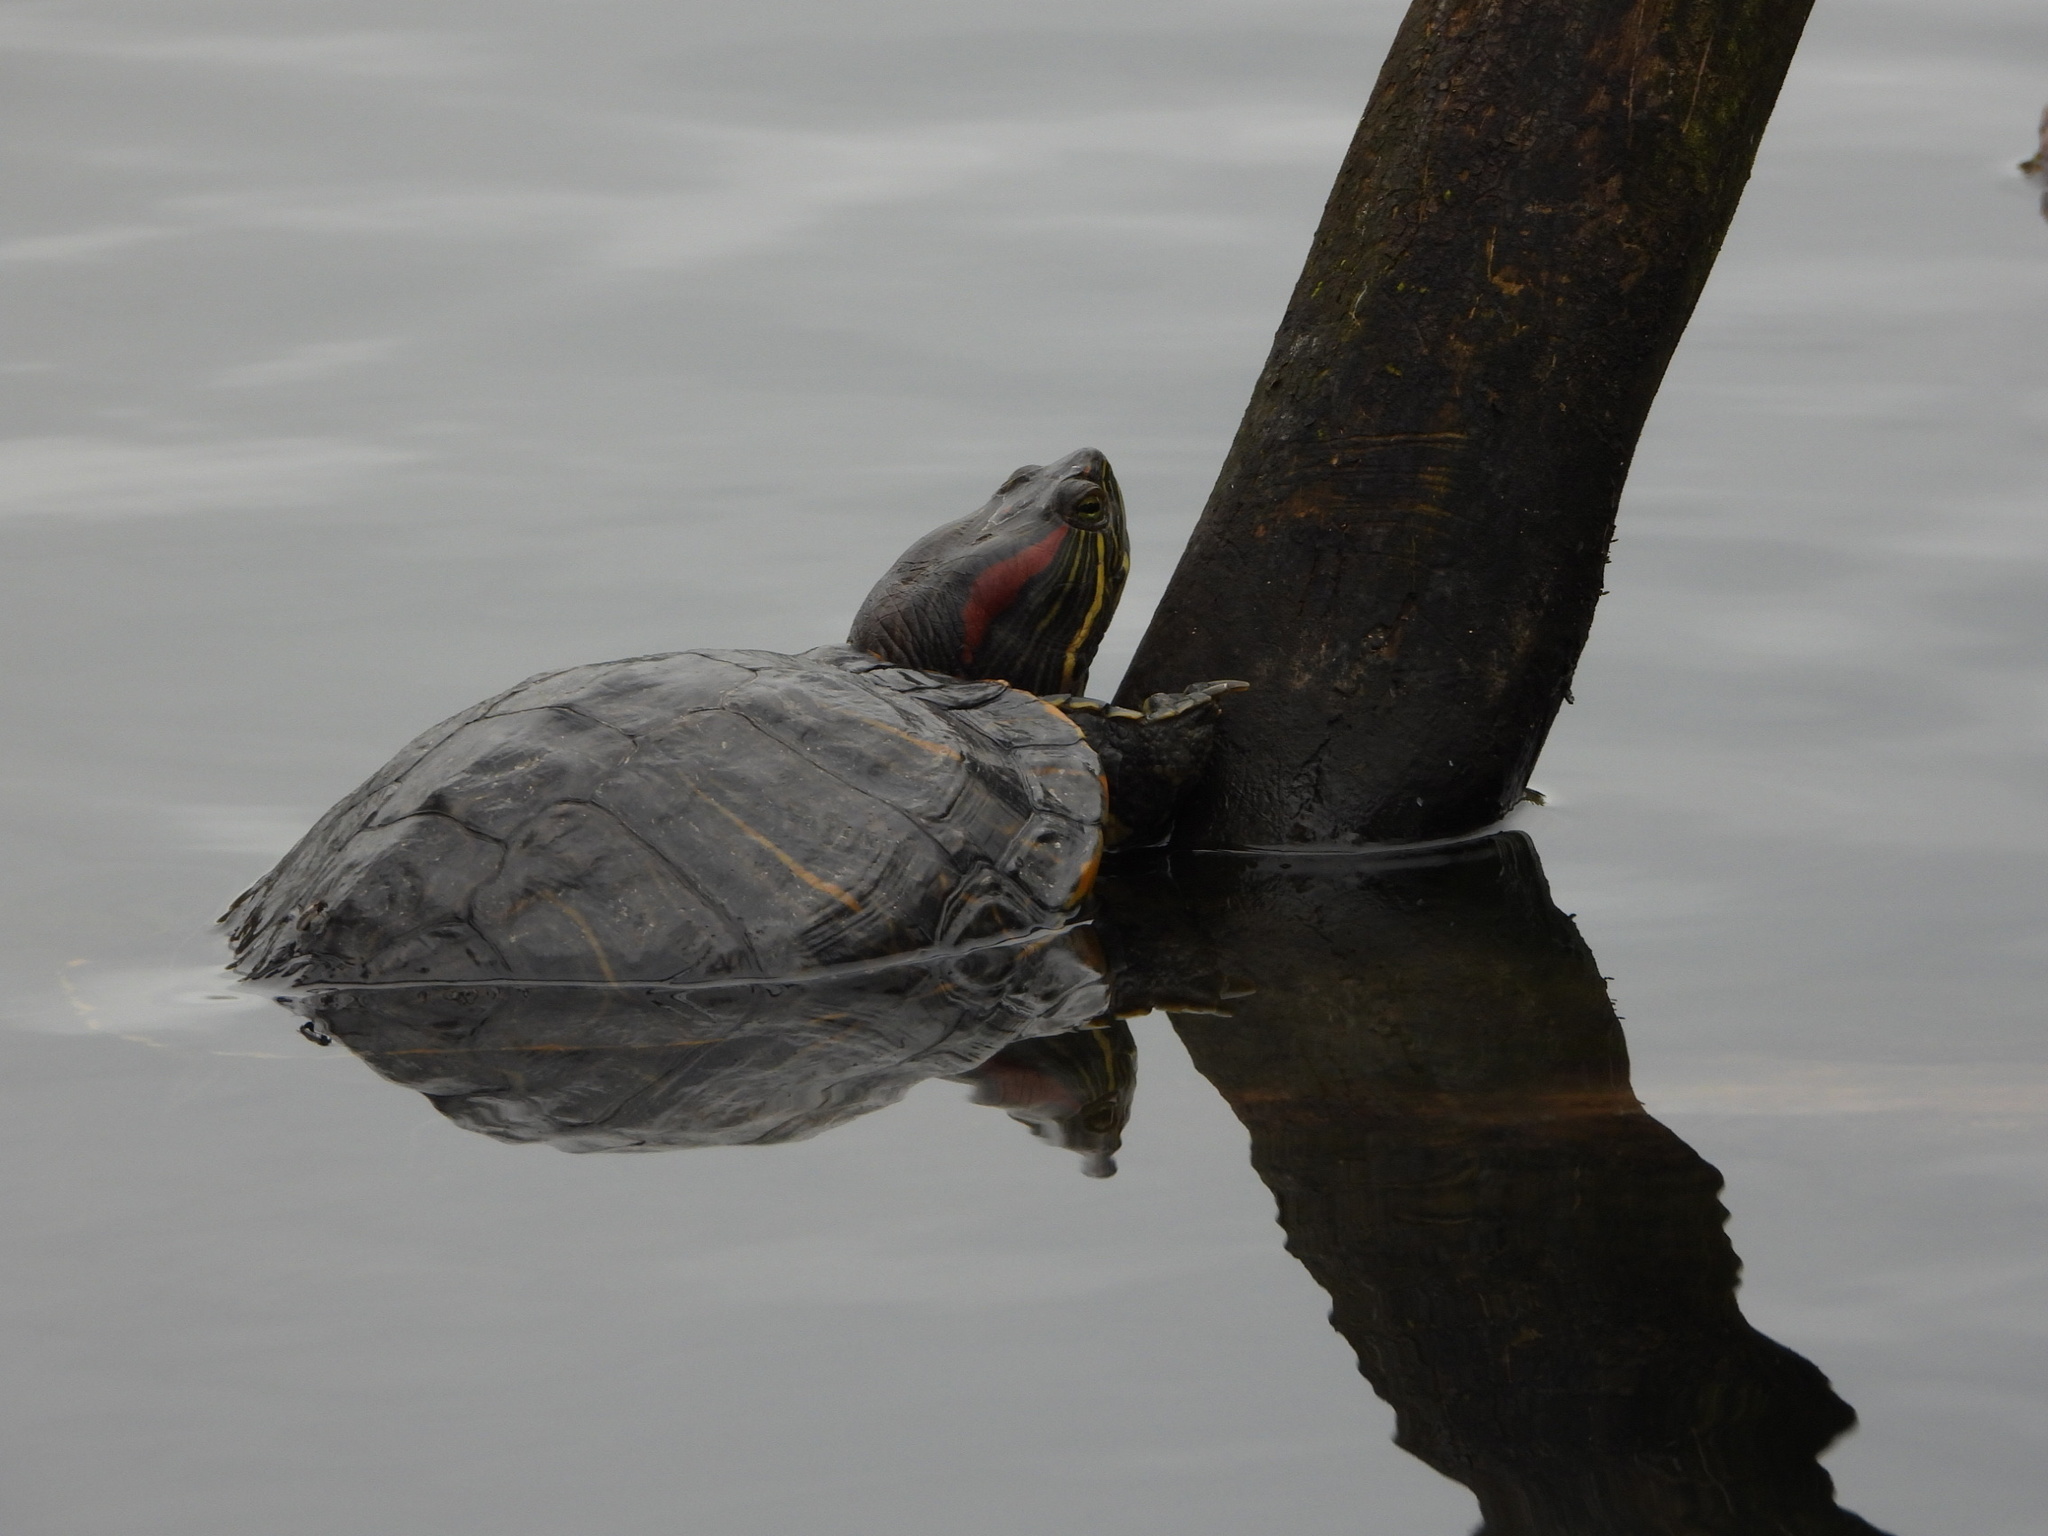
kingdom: Animalia
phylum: Chordata
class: Testudines
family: Emydidae
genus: Trachemys
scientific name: Trachemys scripta
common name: Slider
